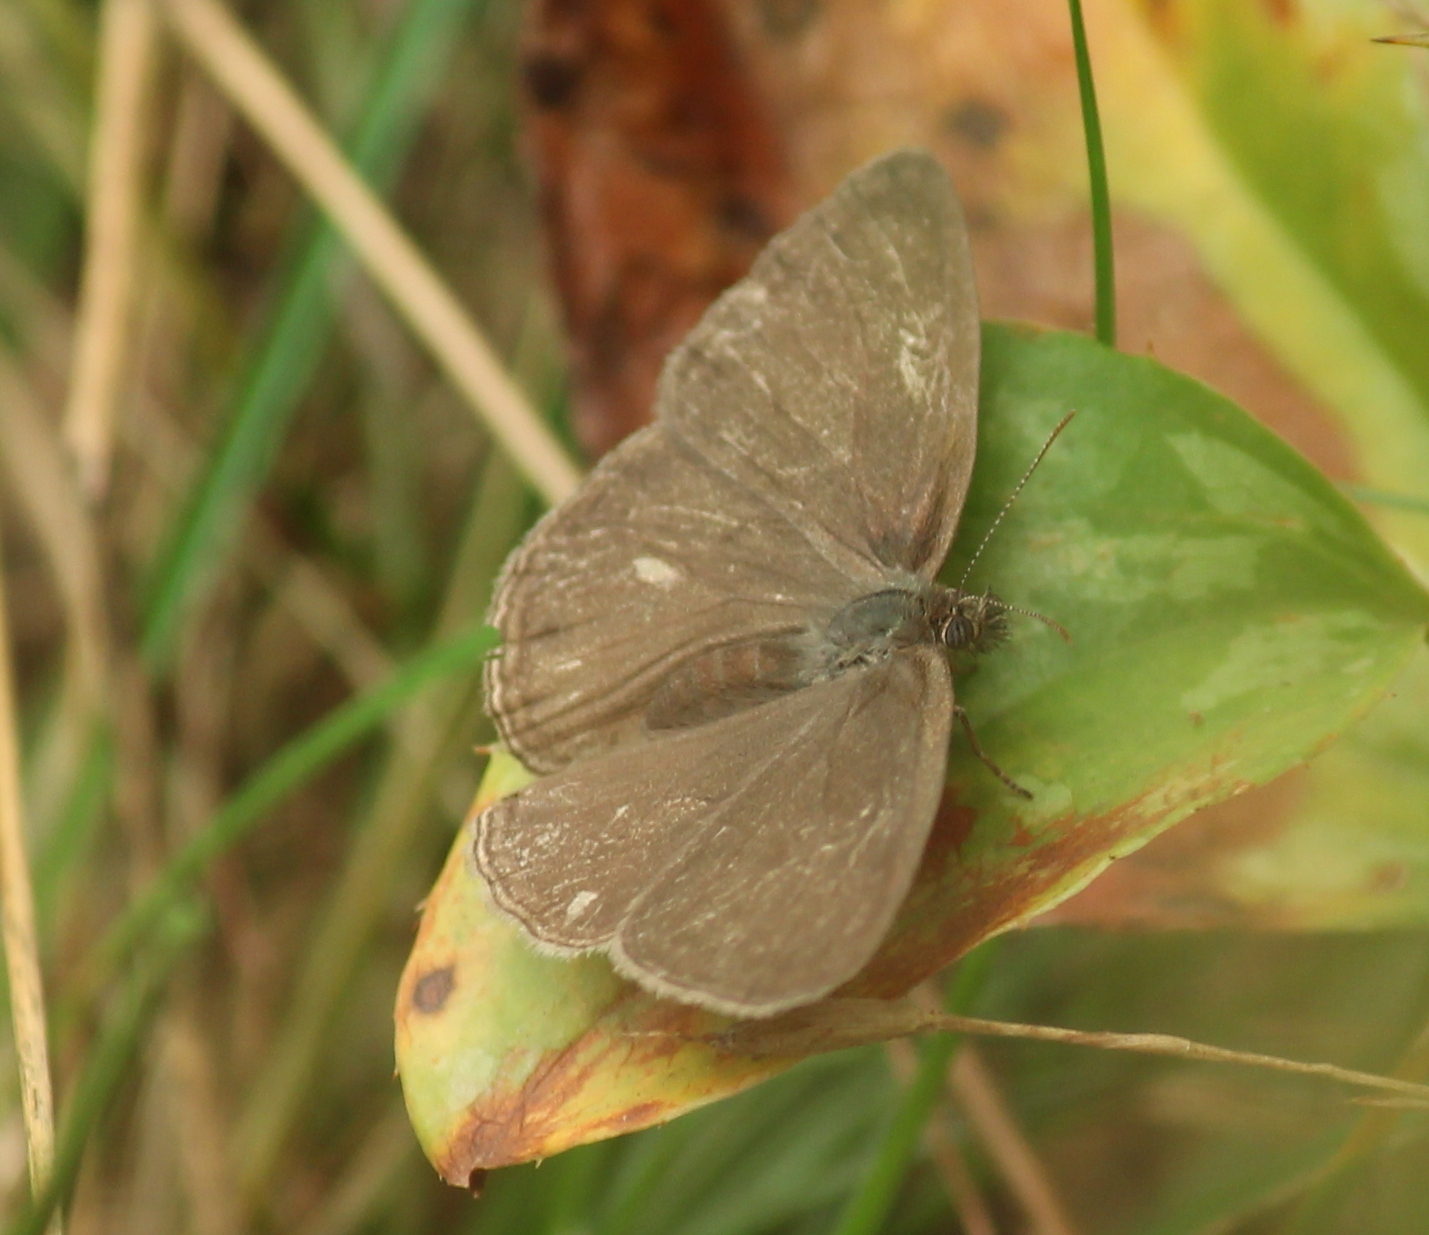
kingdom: Animalia
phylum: Arthropoda
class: Insecta
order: Lepidoptera
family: Nymphalidae
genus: Hermeuptychia
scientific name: Hermeuptychia hermes
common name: Hermes satyr
